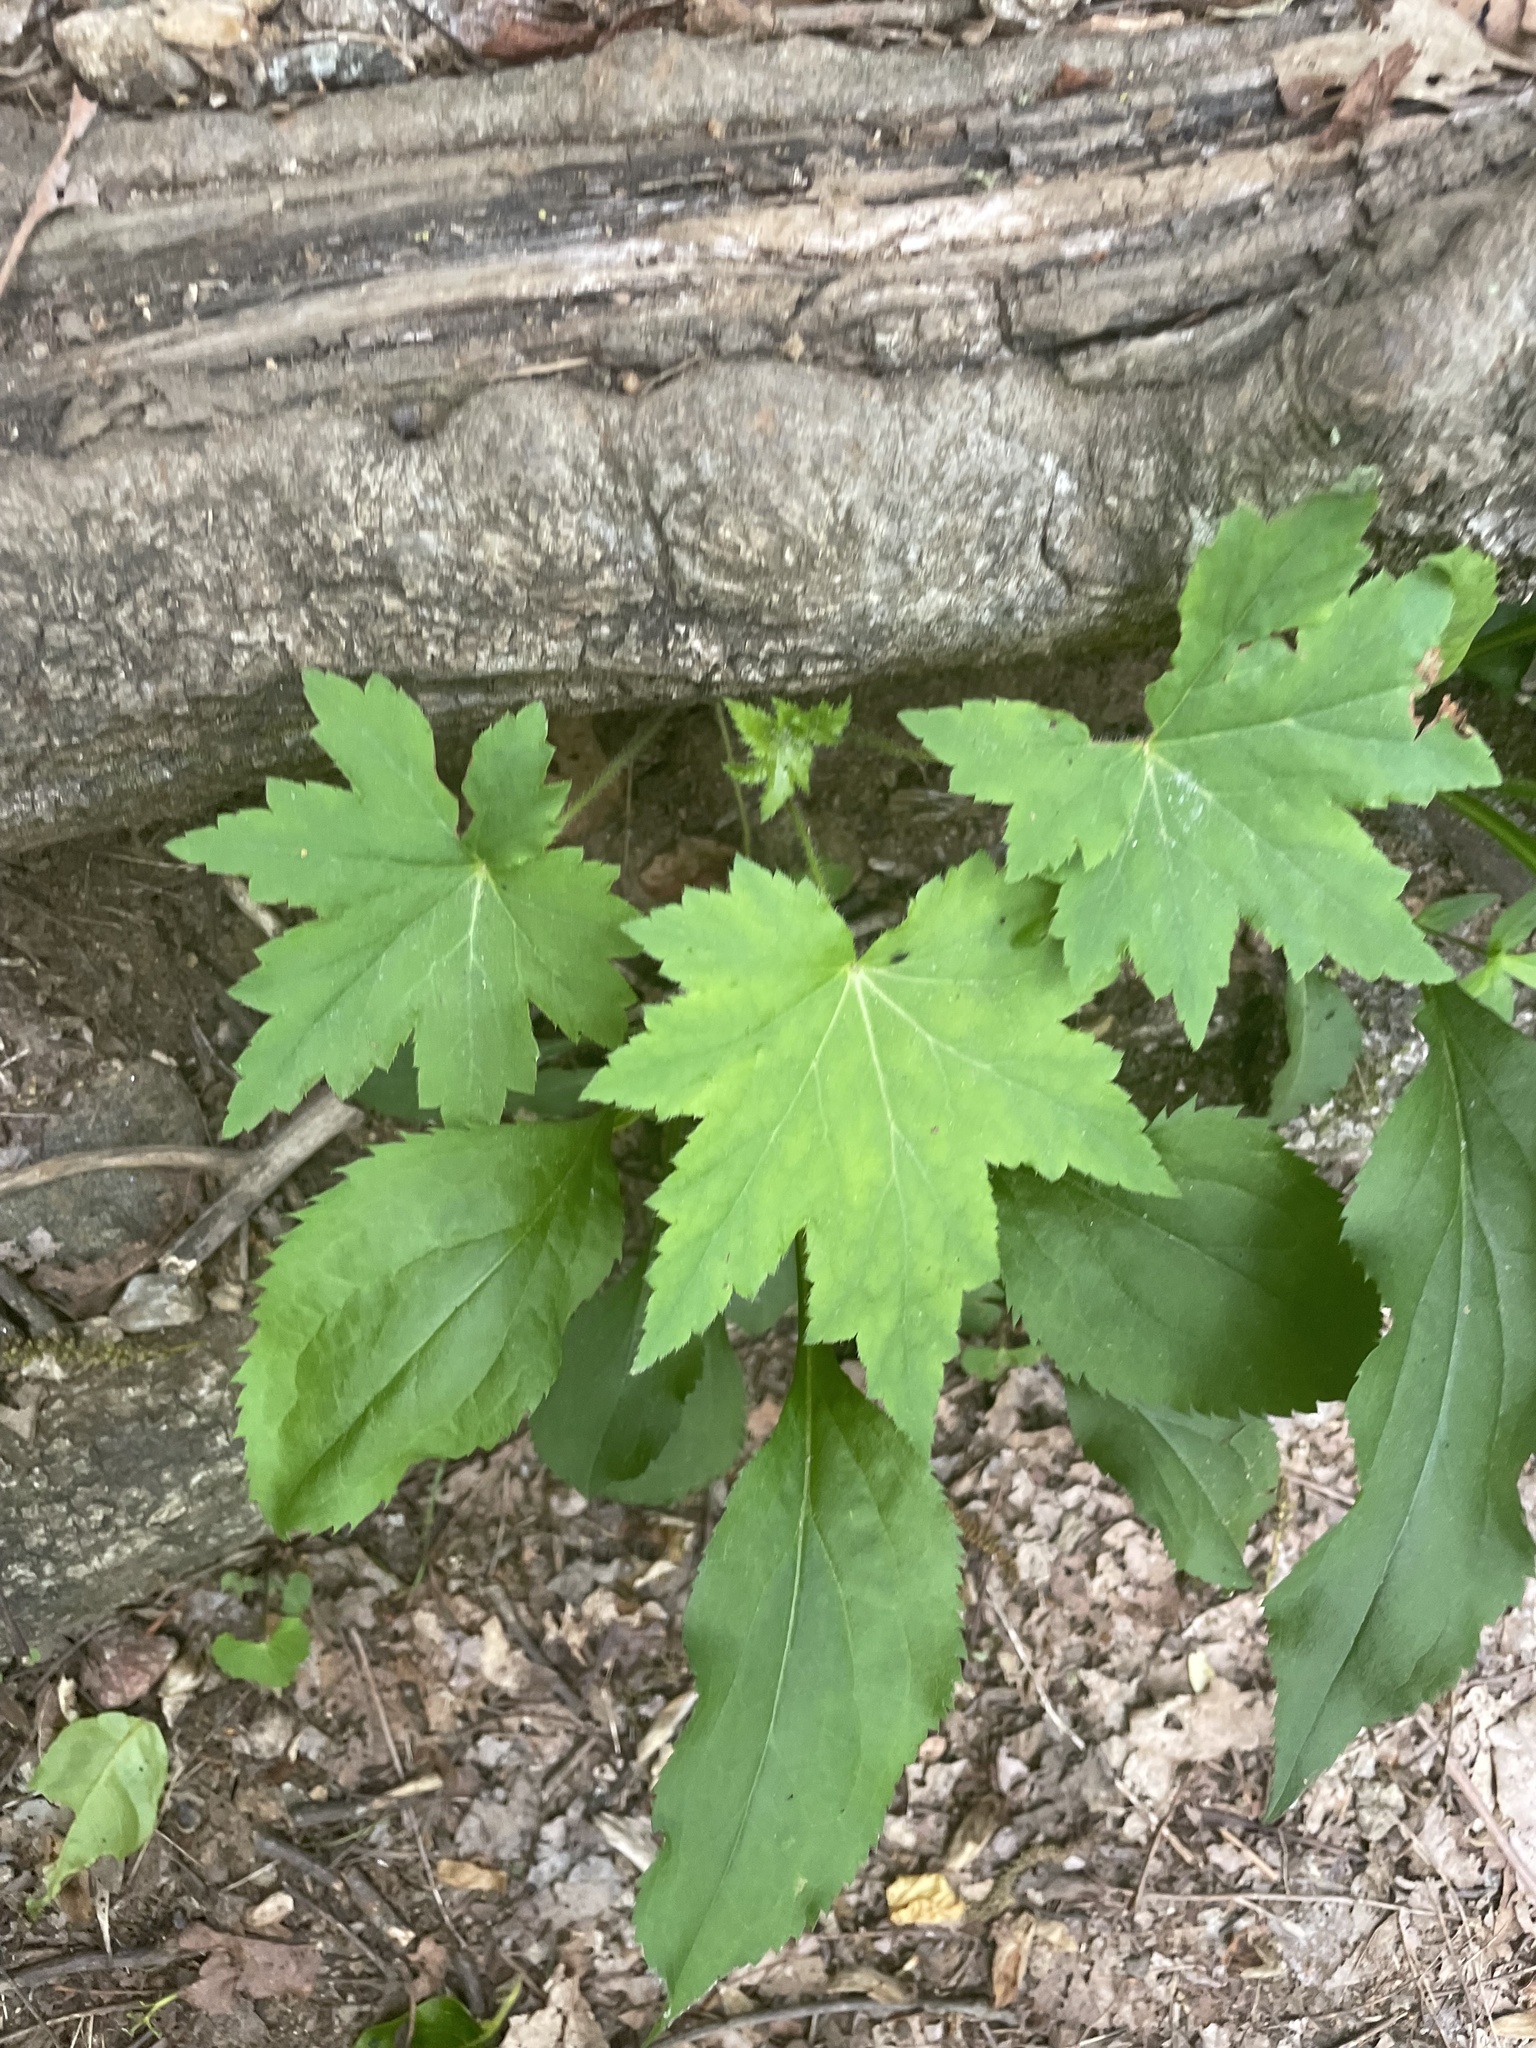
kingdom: Plantae
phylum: Tracheophyta
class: Magnoliopsida
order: Boraginales
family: Hydrophyllaceae
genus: Hydrophyllum
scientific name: Hydrophyllum canadense
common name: Canada waterleaf
